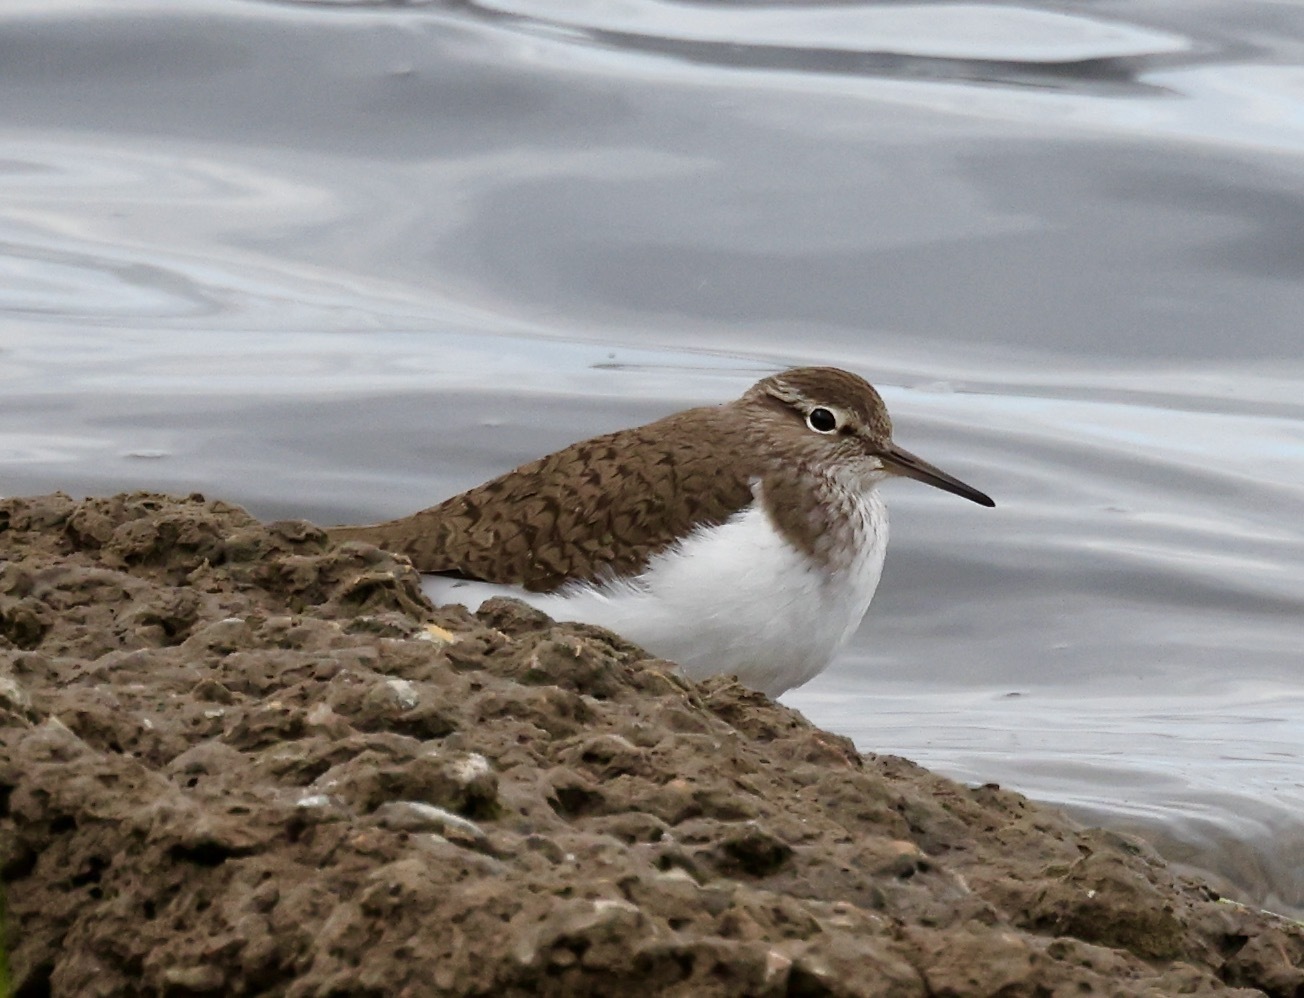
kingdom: Animalia
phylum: Chordata
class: Aves
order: Charadriiformes
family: Scolopacidae
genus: Actitis
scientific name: Actitis hypoleucos
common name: Common sandpiper
